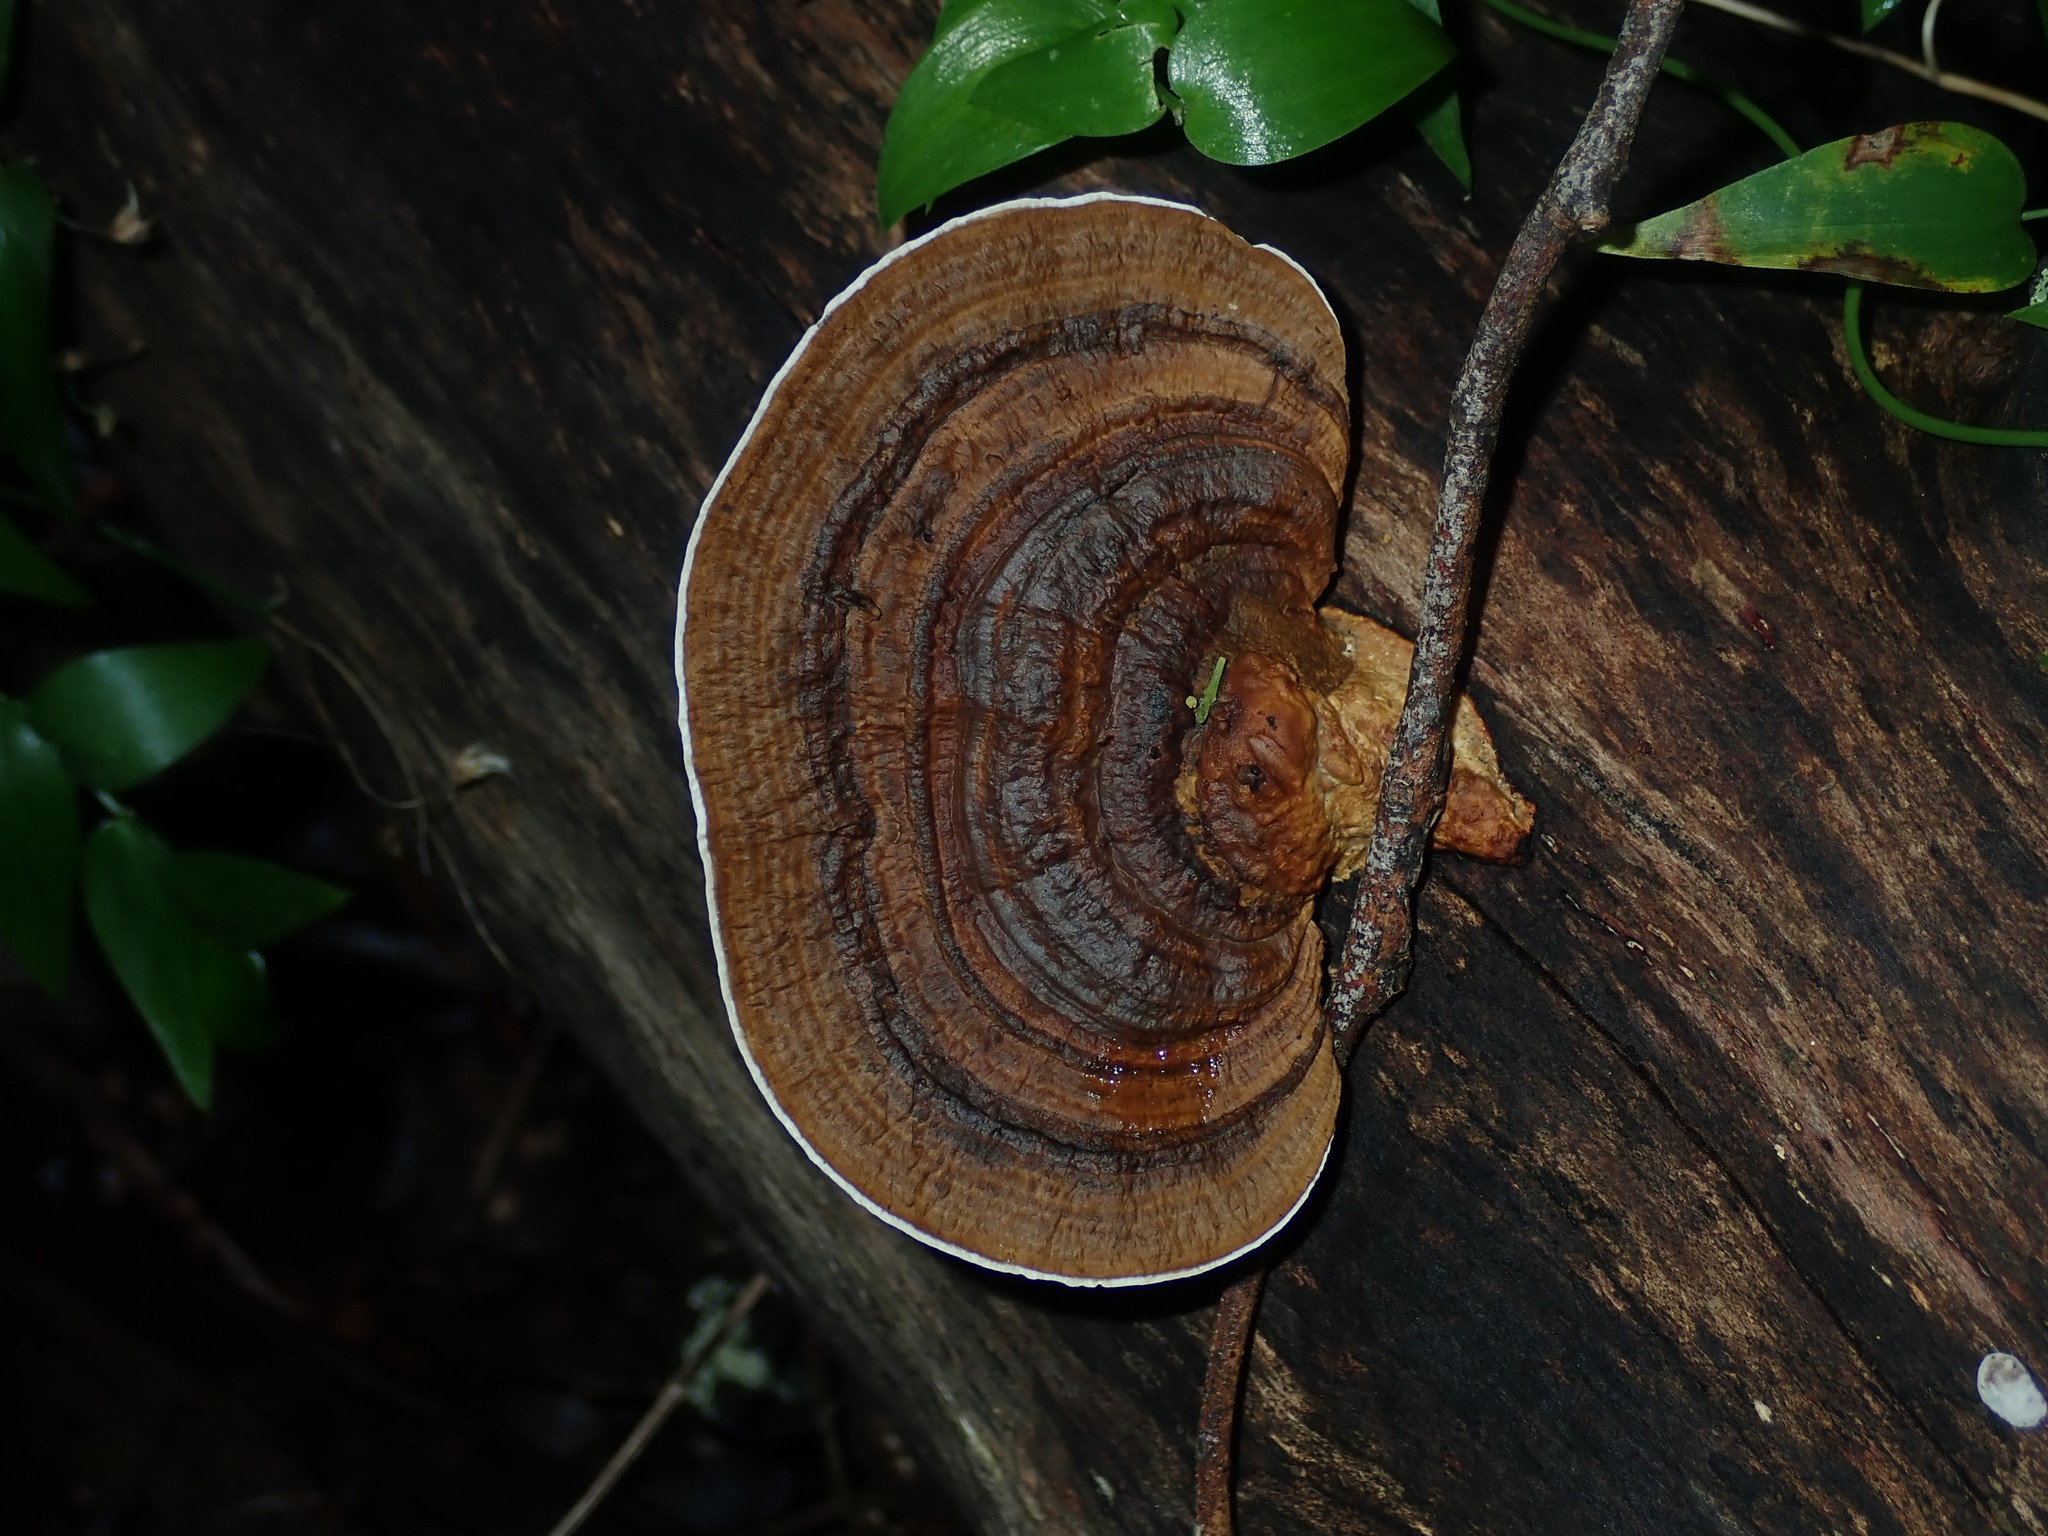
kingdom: Fungi
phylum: Basidiomycota
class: Agaricomycetes
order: Polyporales
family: Polyporaceae
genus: Pseudofavolus
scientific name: Pseudofavolus tenuis
